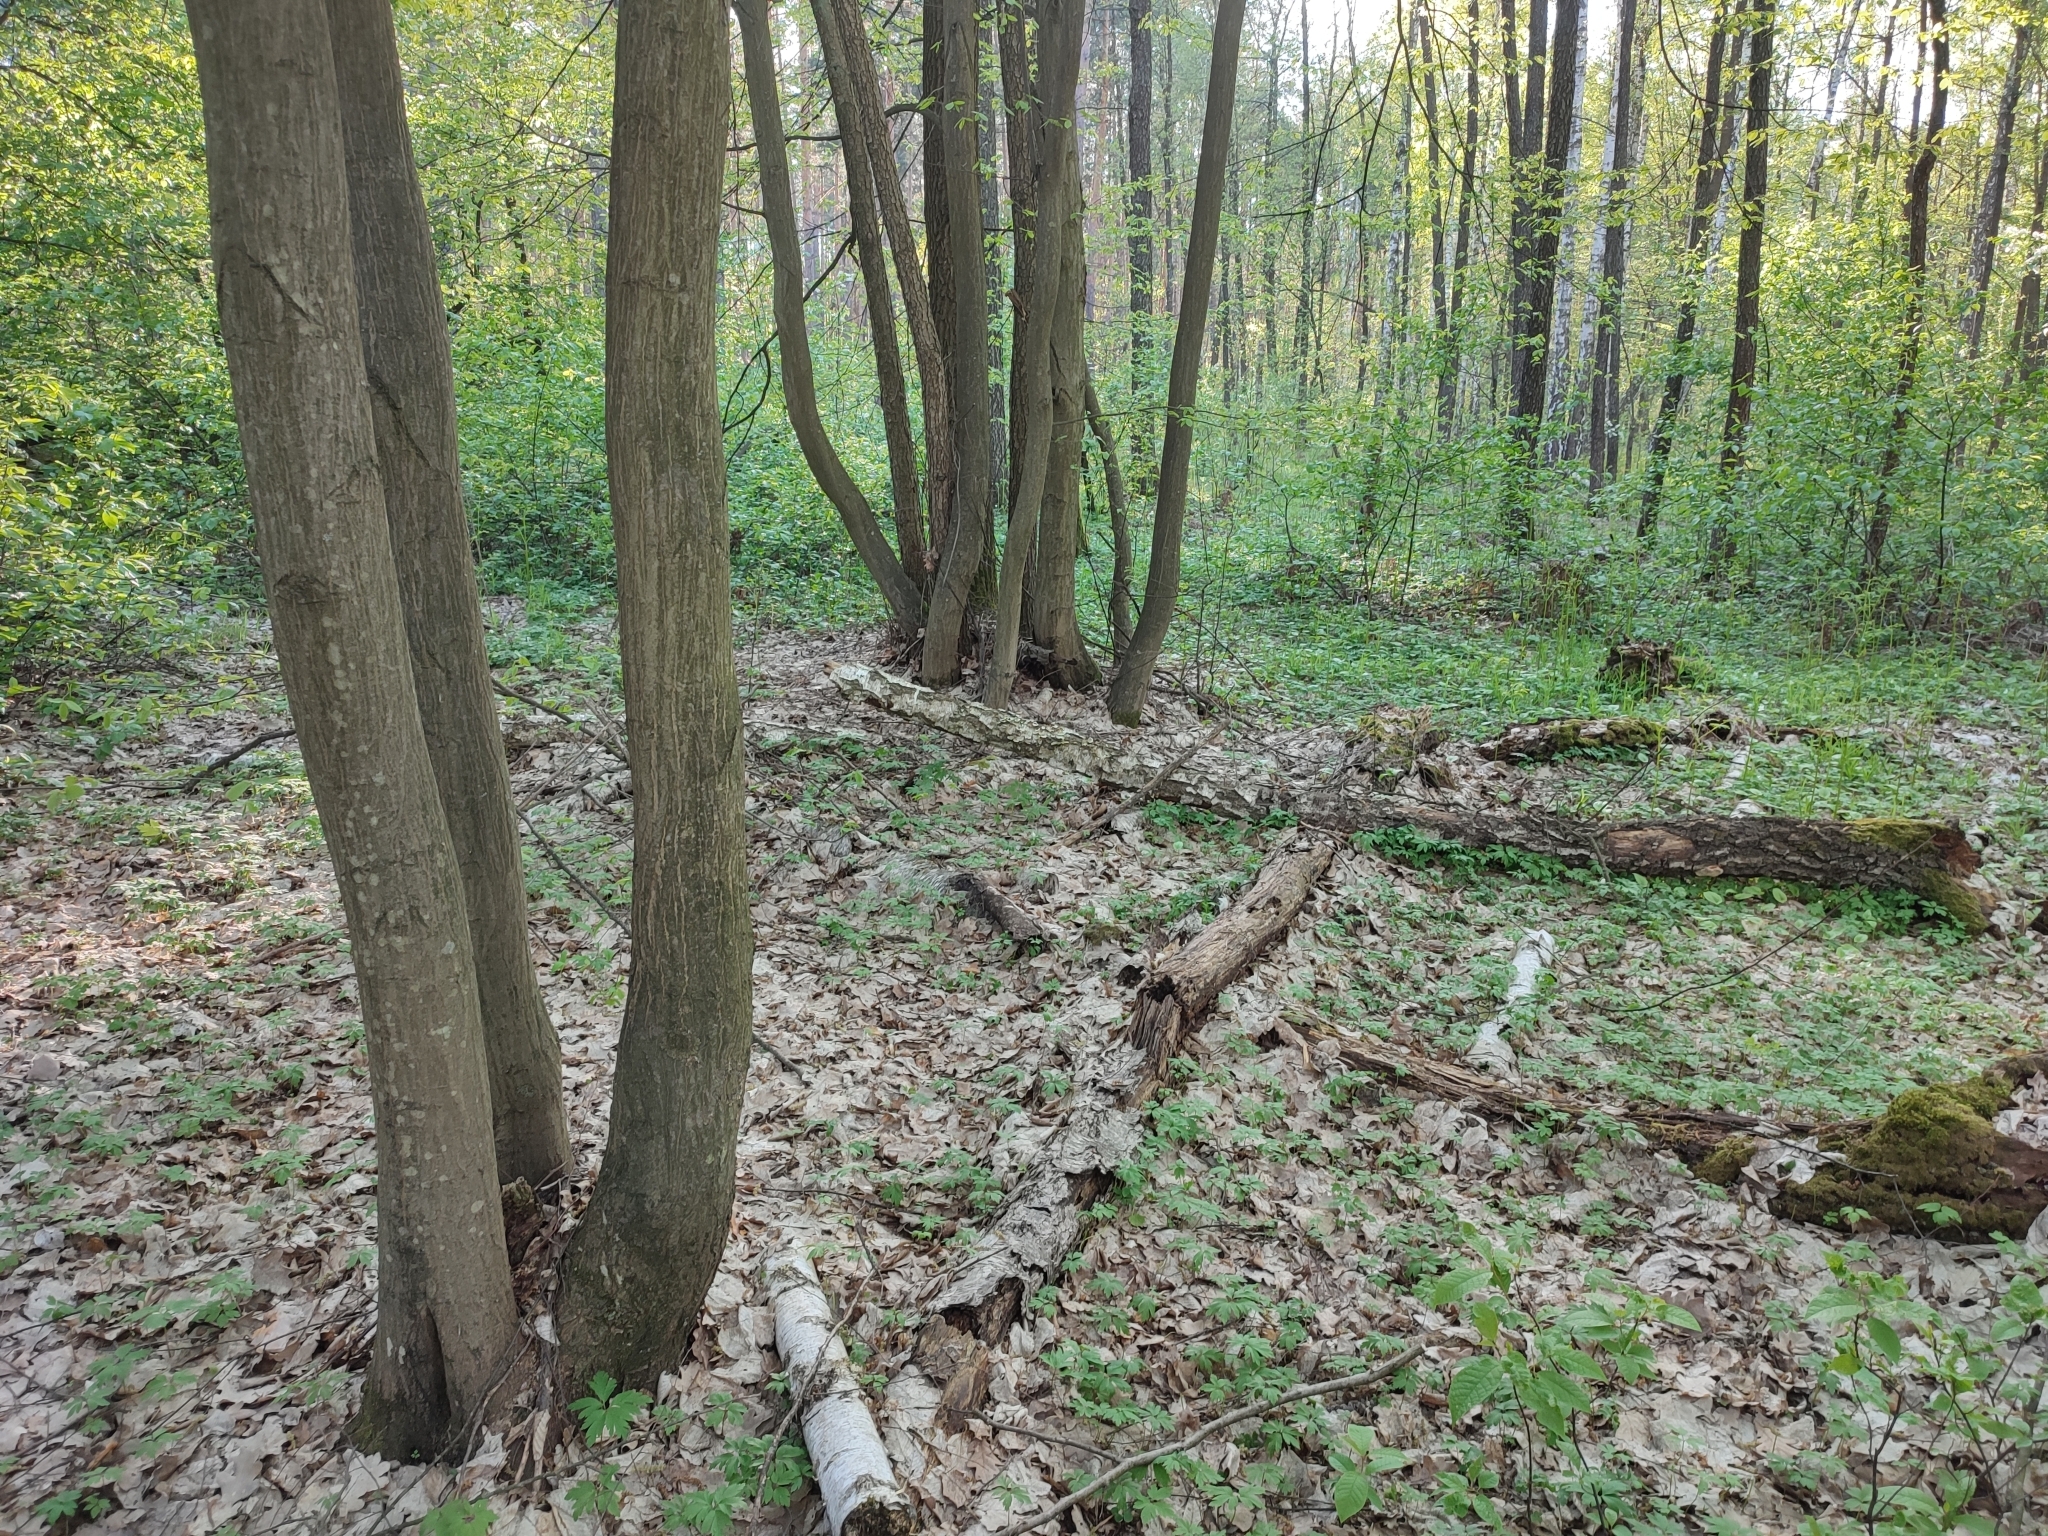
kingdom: Plantae
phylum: Tracheophyta
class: Magnoliopsida
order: Fagales
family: Betulaceae
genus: Carpinus
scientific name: Carpinus betulus
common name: Hornbeam
